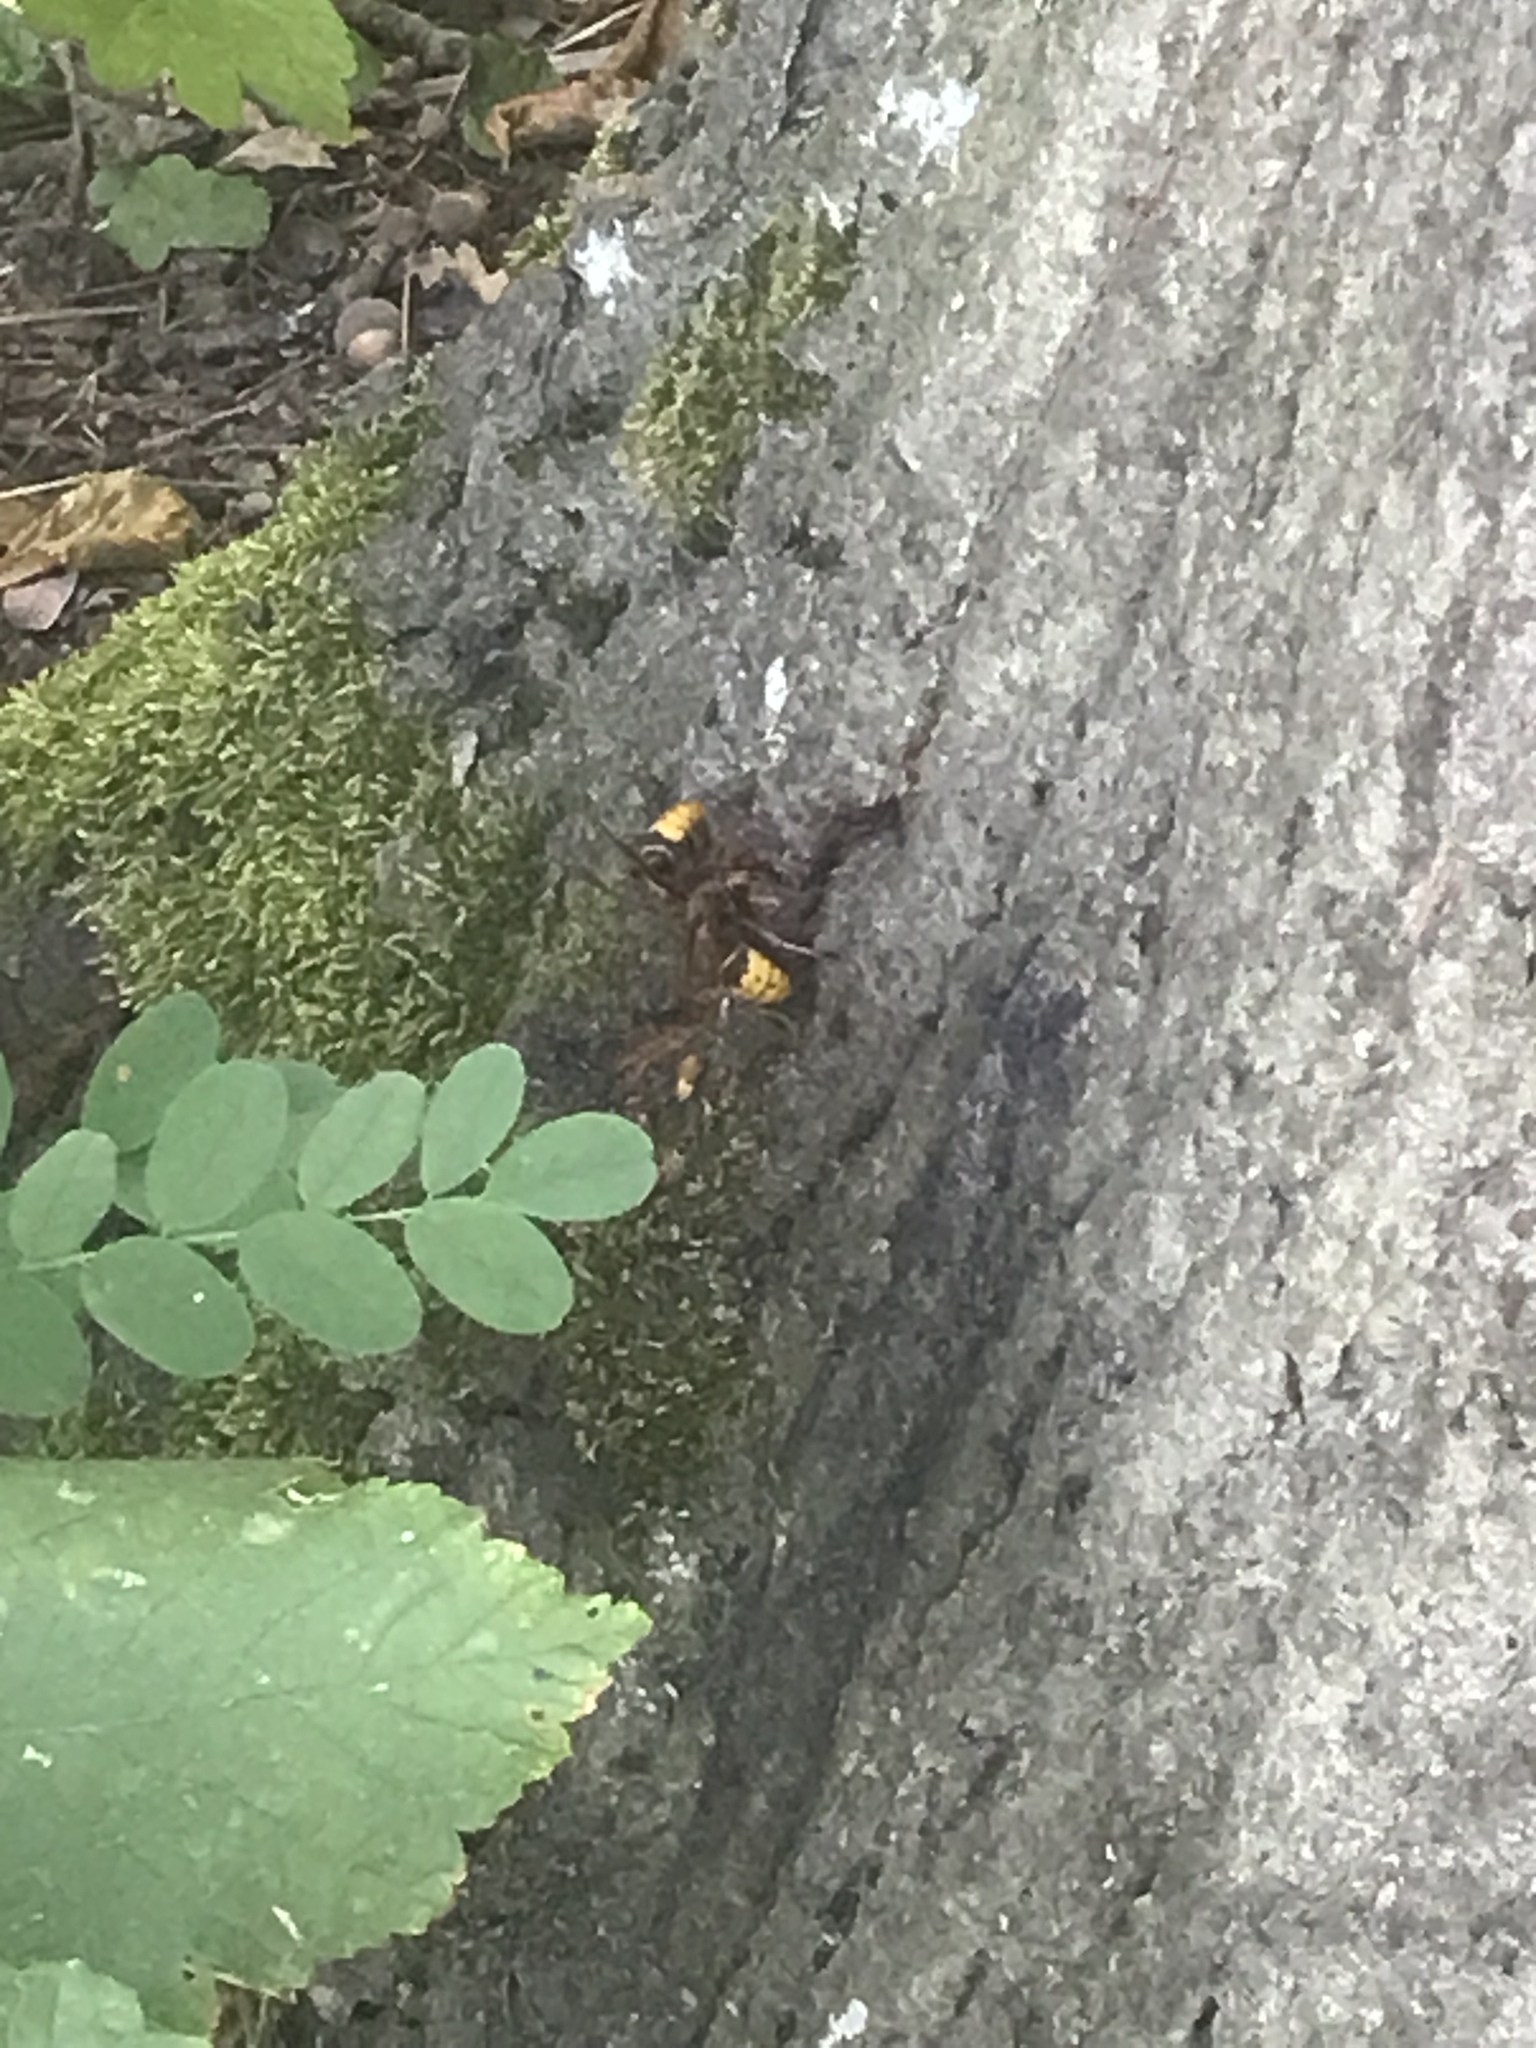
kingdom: Animalia
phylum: Arthropoda
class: Insecta
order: Hymenoptera
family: Vespidae
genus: Vespa
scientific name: Vespa crabro
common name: Hornet
